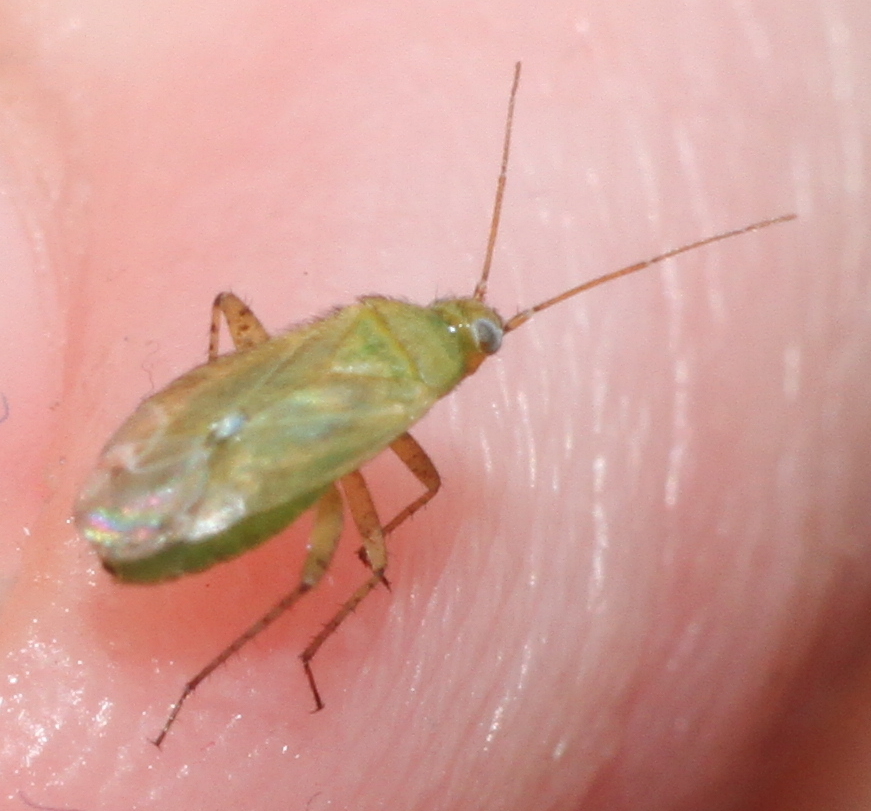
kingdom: Animalia
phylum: Arthropoda
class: Insecta
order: Hemiptera
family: Miridae
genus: Plagiognathus
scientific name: Plagiognathus chrysanthemi
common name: Plant bug
